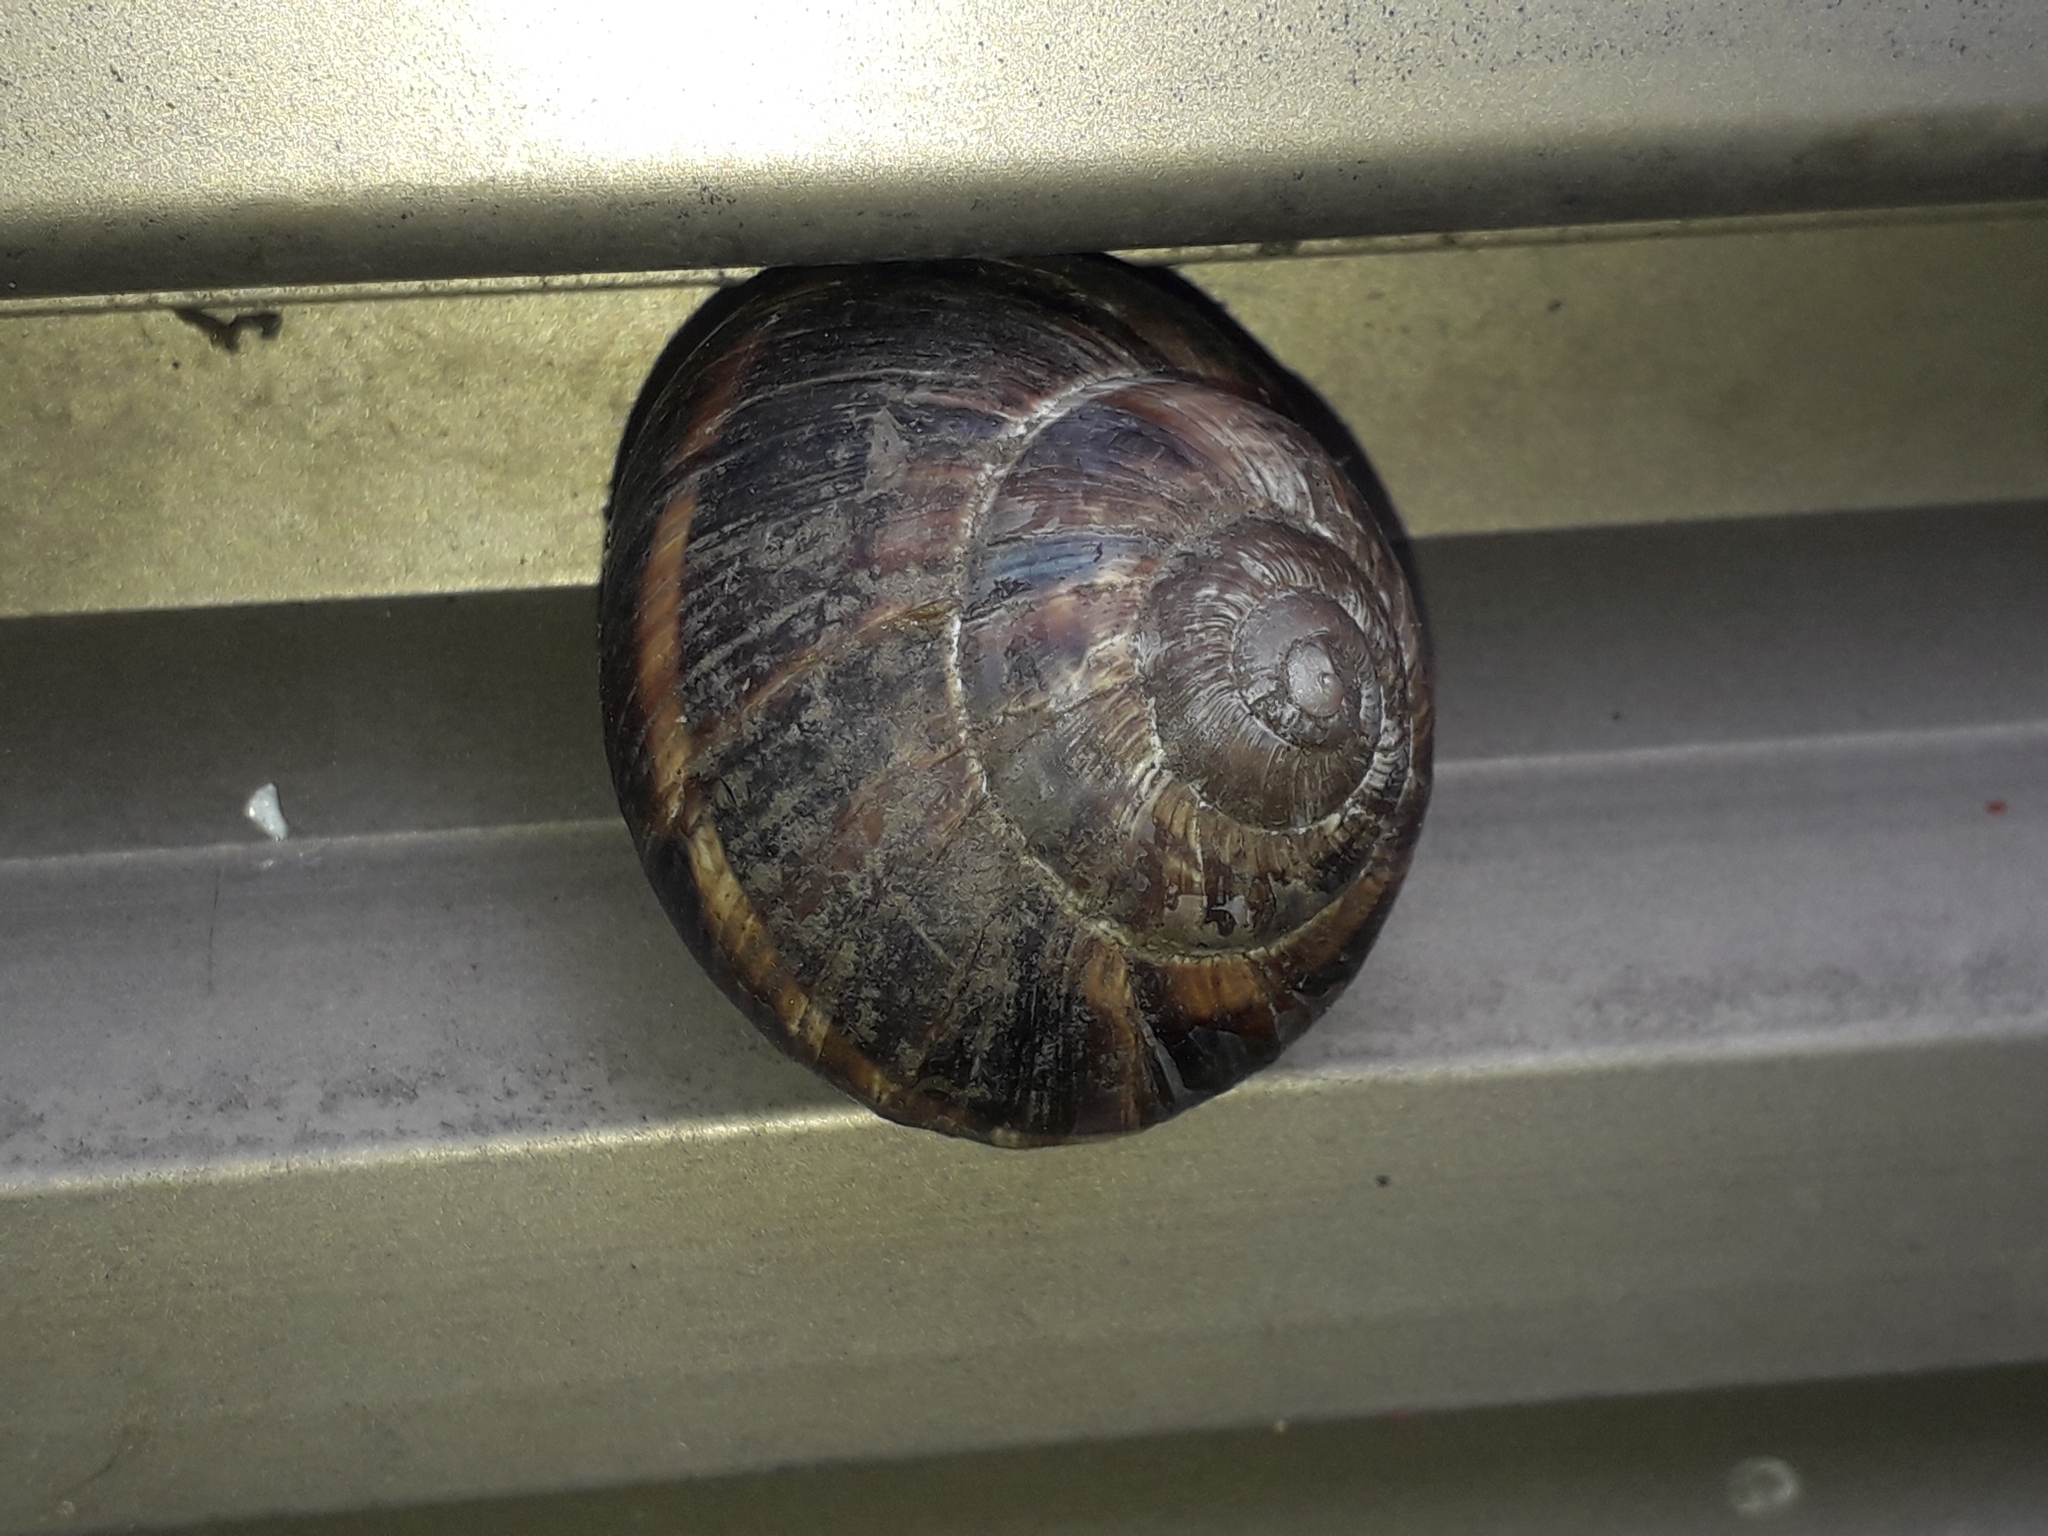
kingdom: Animalia
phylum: Mollusca
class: Gastropoda
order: Stylommatophora
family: Helicidae
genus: Helix
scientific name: Helix lucorum
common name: Turkish snail
